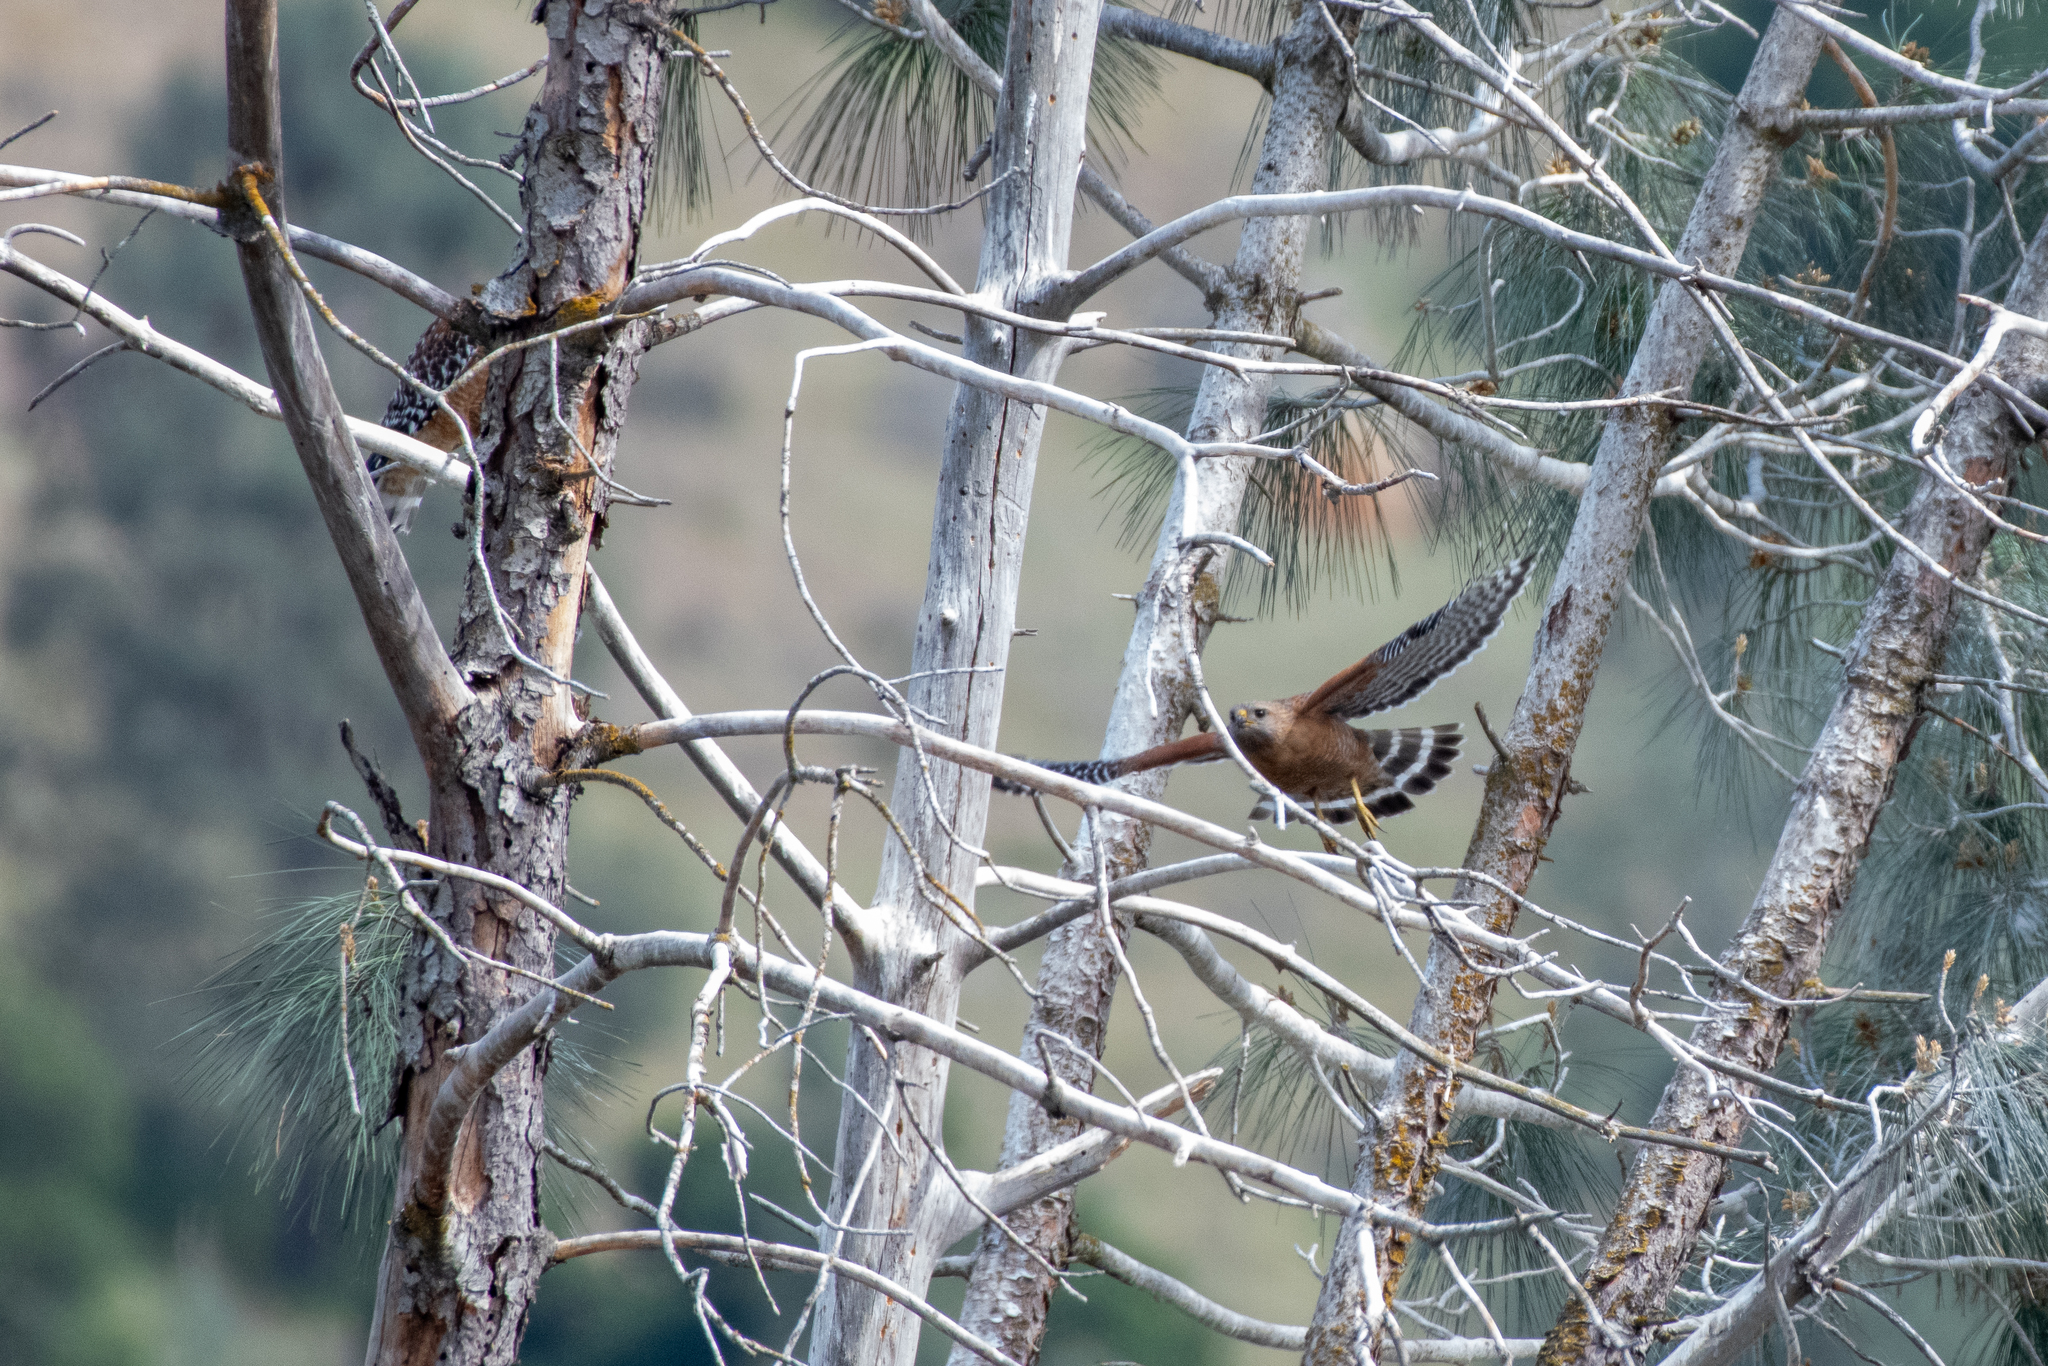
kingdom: Animalia
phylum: Chordata
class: Aves
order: Accipitriformes
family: Accipitridae
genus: Buteo
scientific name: Buteo lineatus
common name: Red-shouldered hawk
